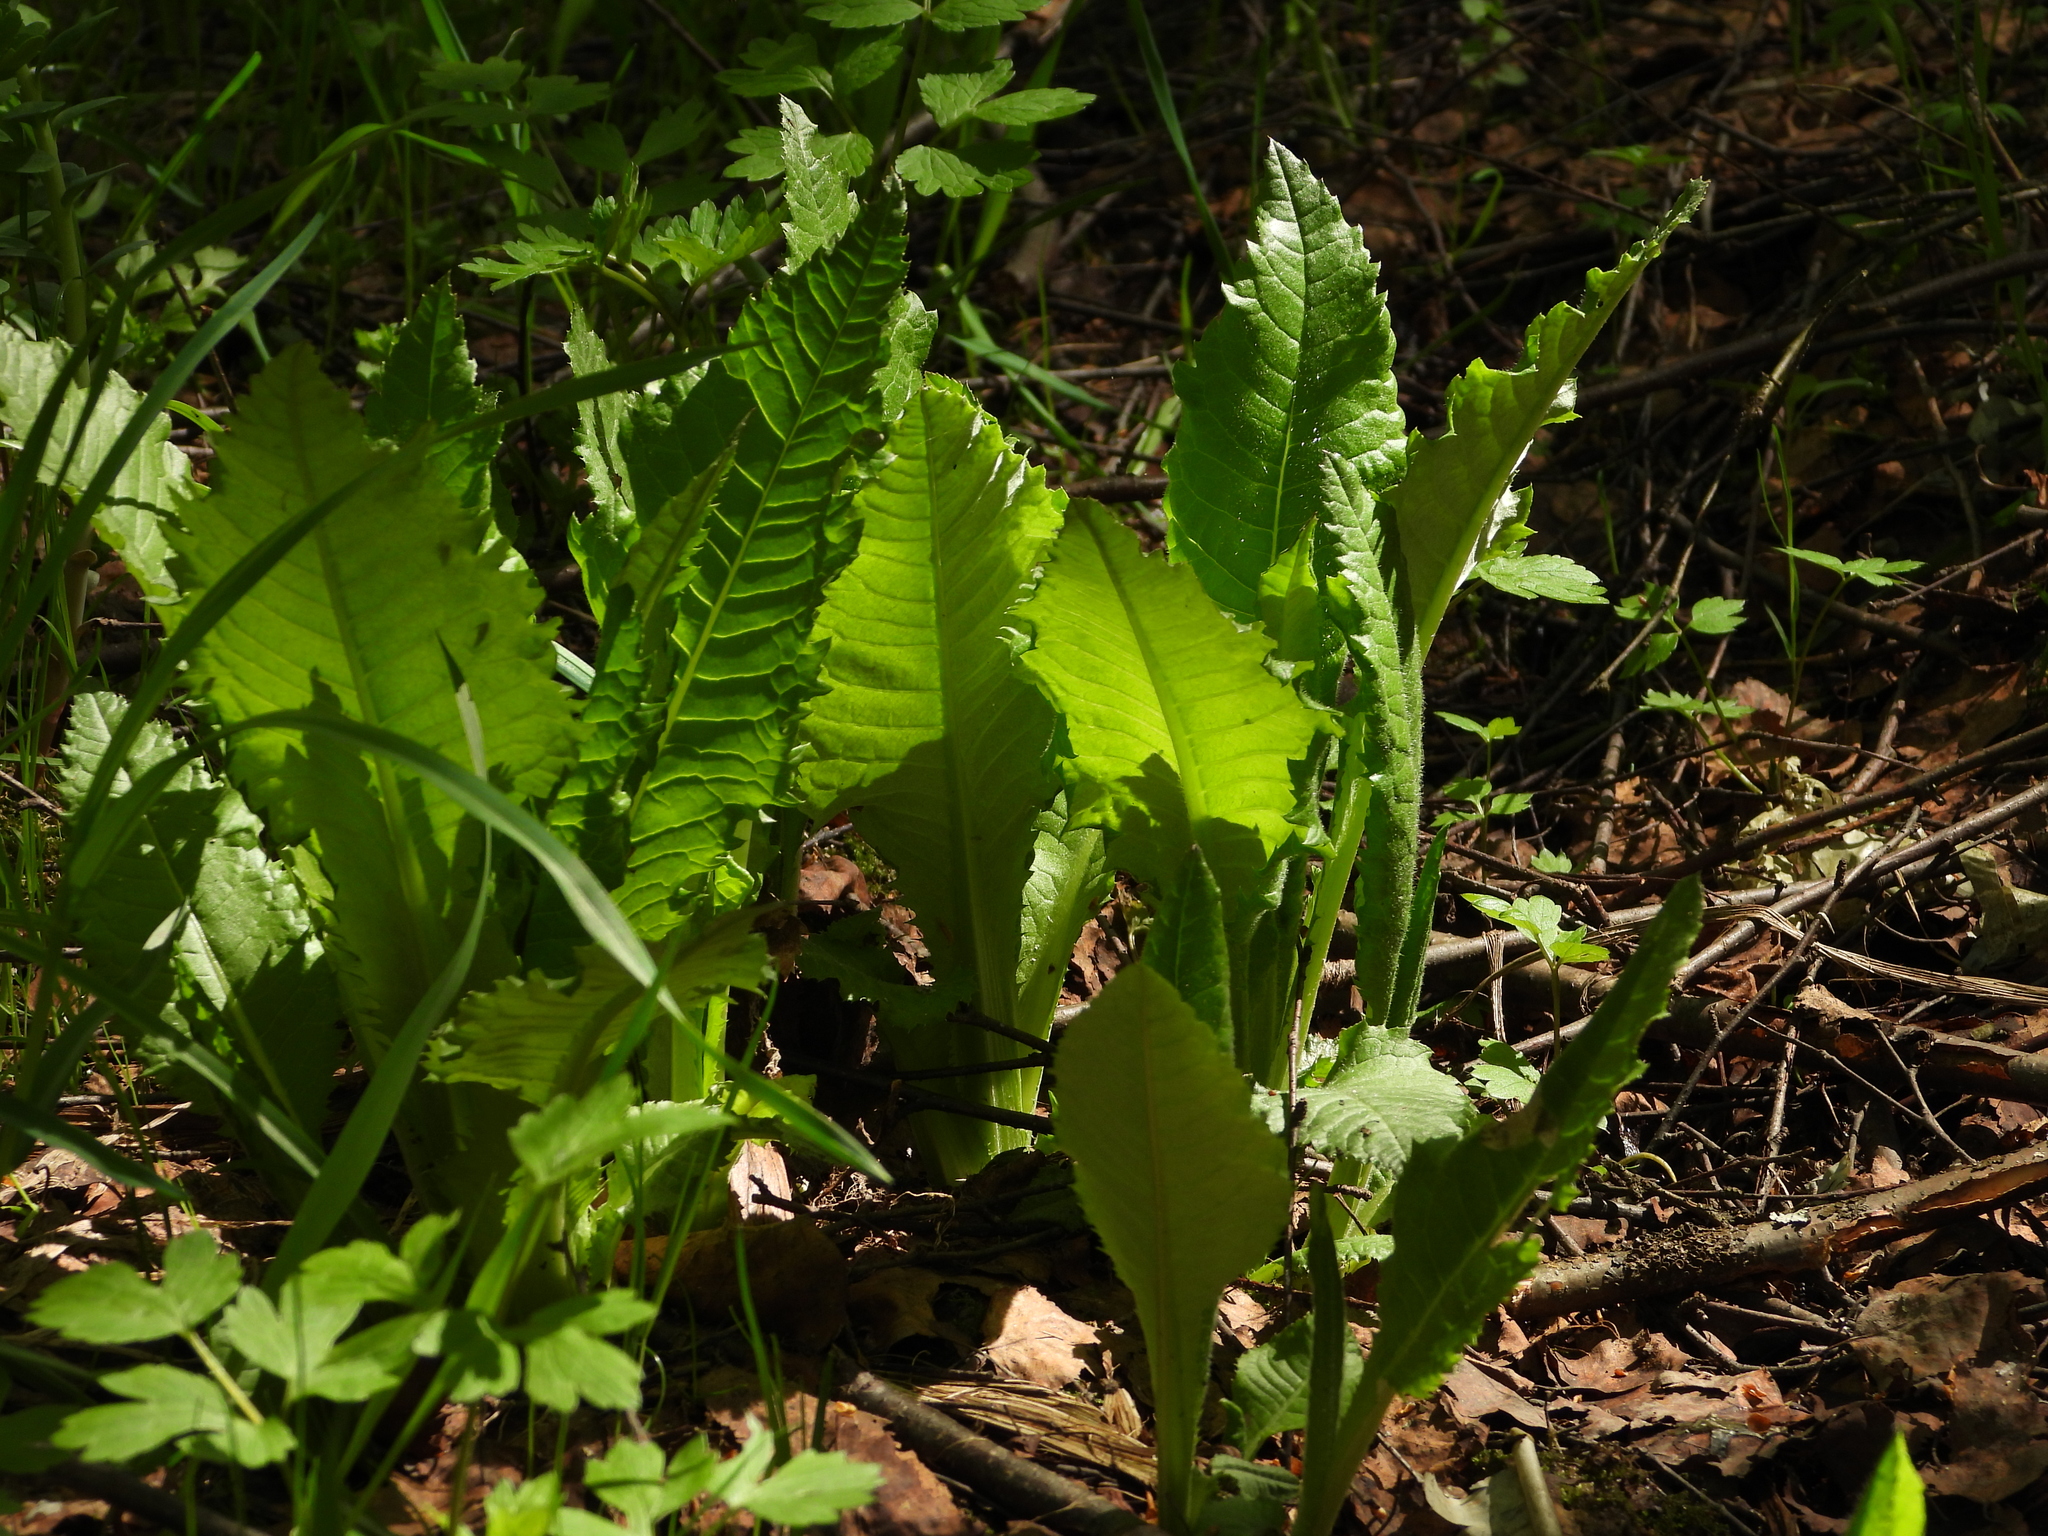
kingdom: Plantae
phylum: Tracheophyta
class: Magnoliopsida
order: Asterales
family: Asteraceae
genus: Cirsium
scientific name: Cirsium heterophyllum
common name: Melancholy thistle
